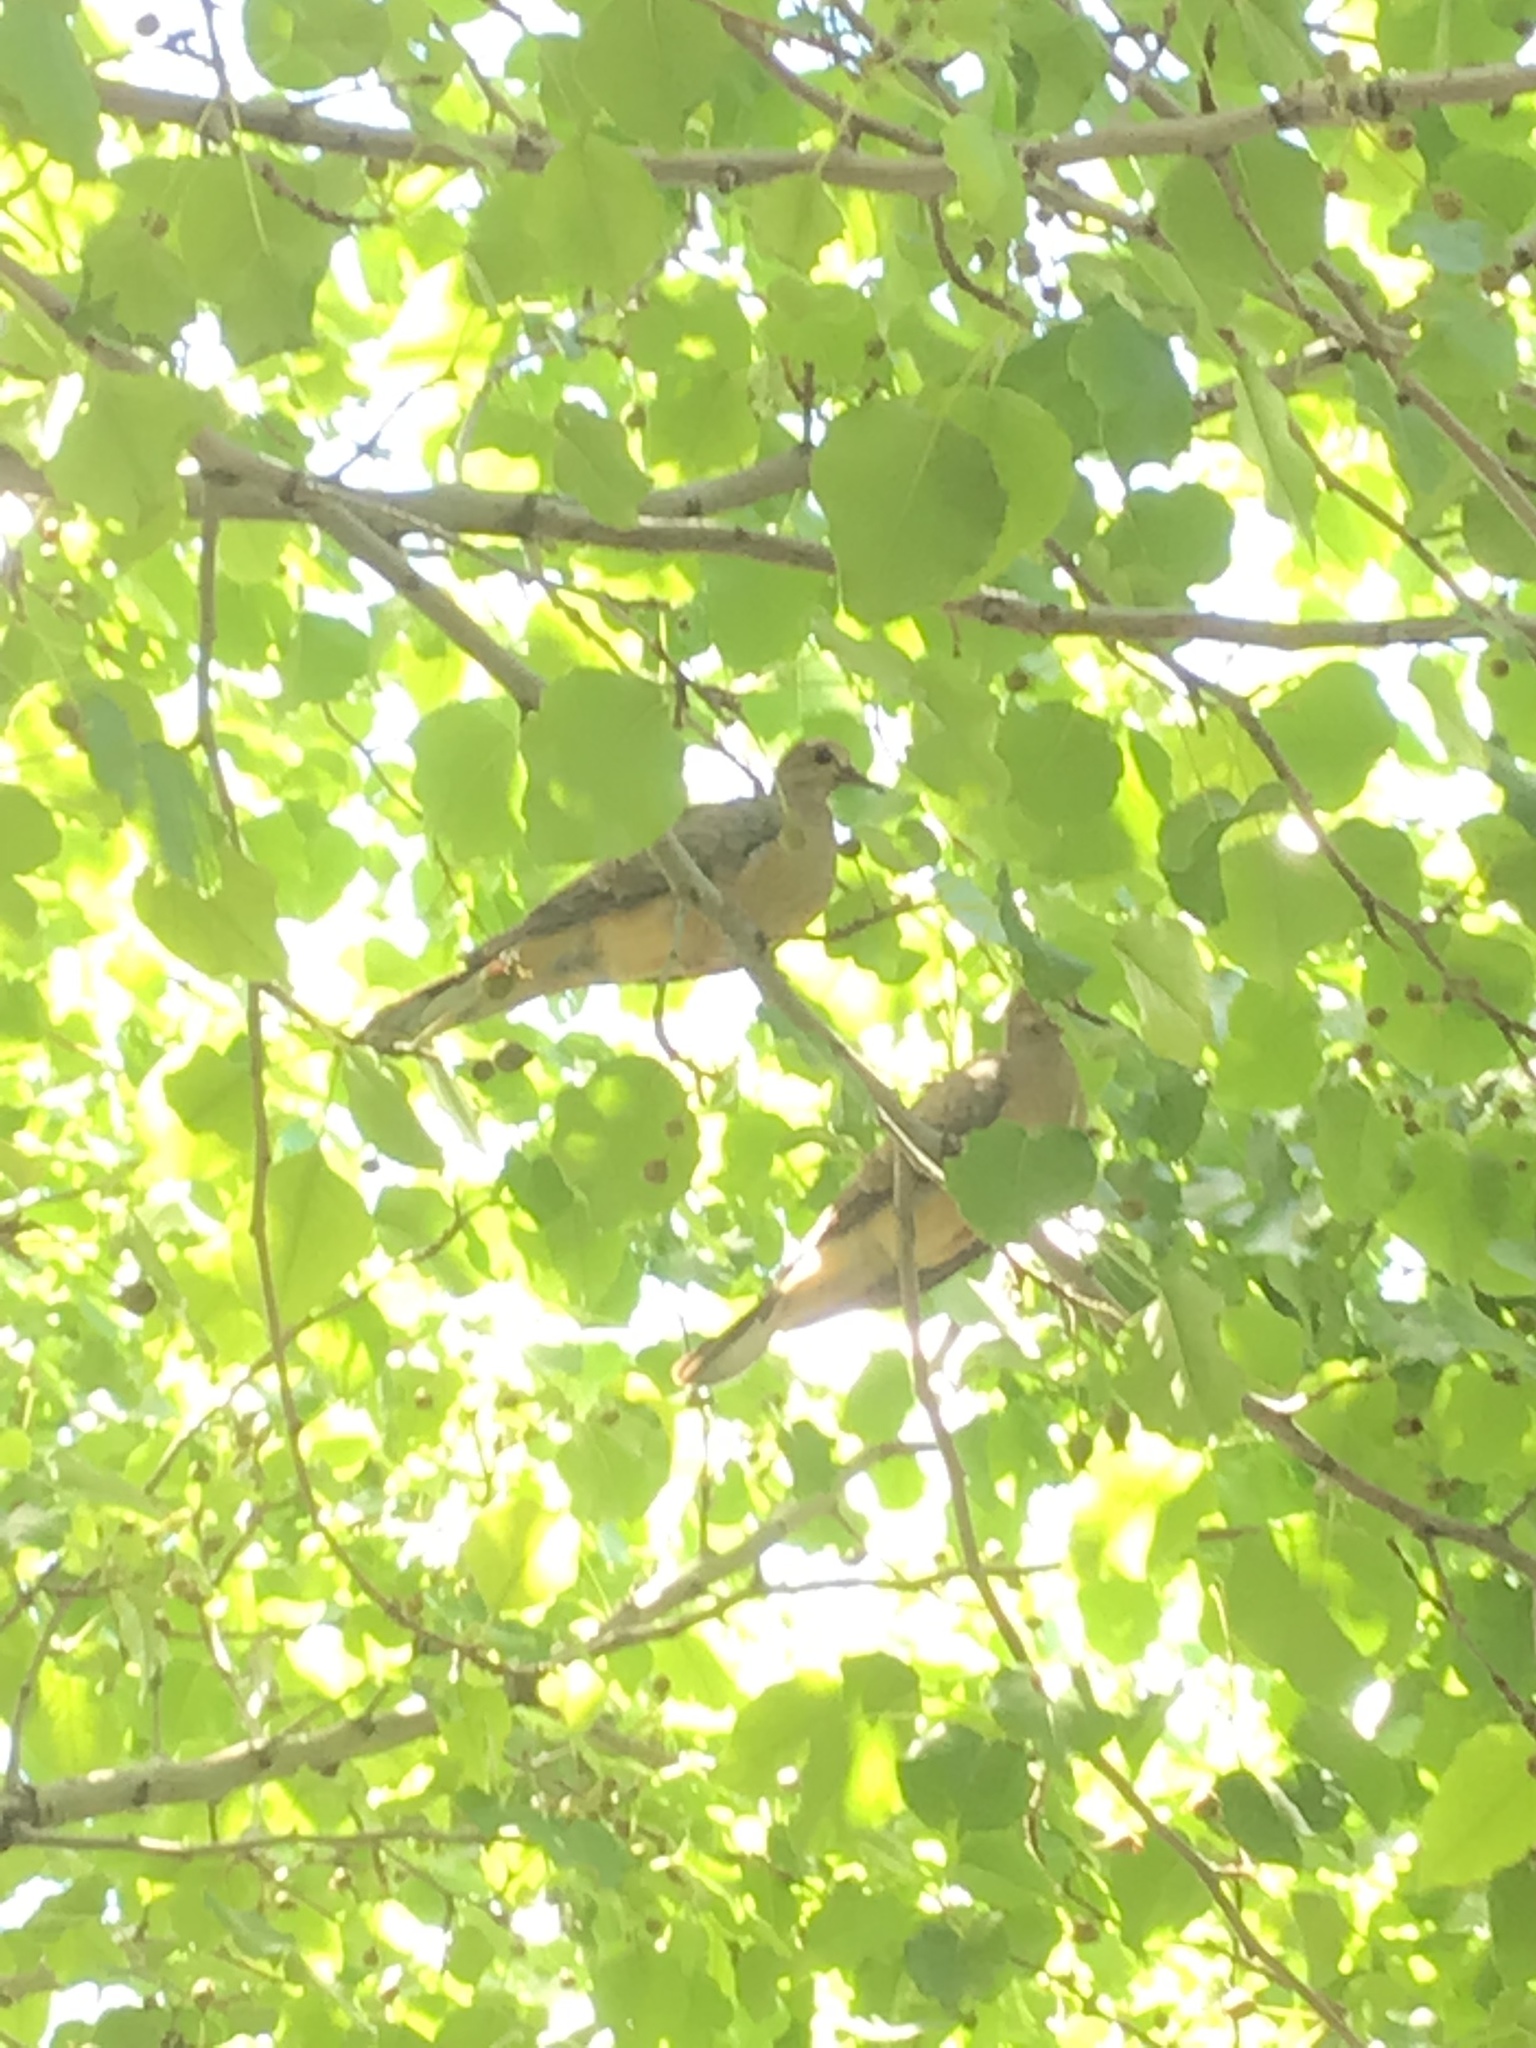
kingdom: Animalia
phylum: Chordata
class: Aves
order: Columbiformes
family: Columbidae
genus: Zenaida
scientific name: Zenaida macroura
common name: Mourning dove
